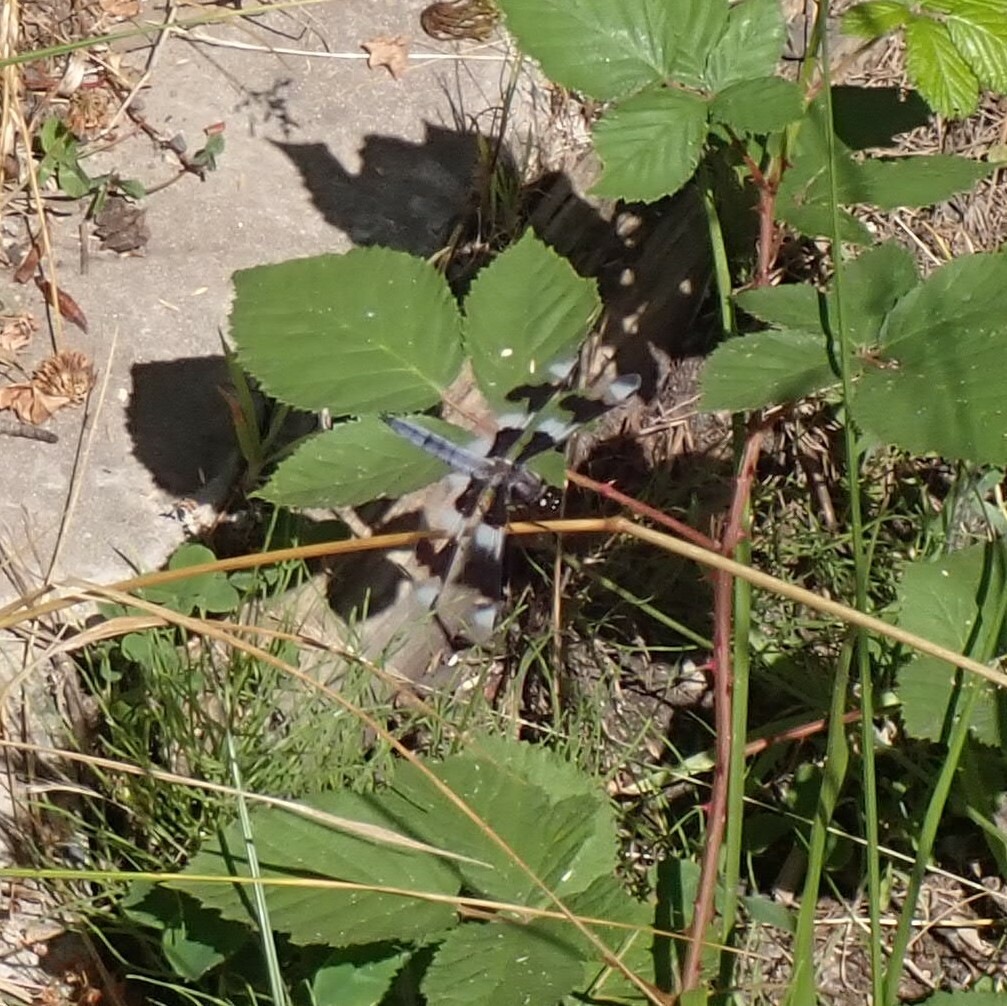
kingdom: Animalia
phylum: Arthropoda
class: Insecta
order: Odonata
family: Libellulidae
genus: Libellula
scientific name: Libellula forensis
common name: Eight-spotted skimmer
